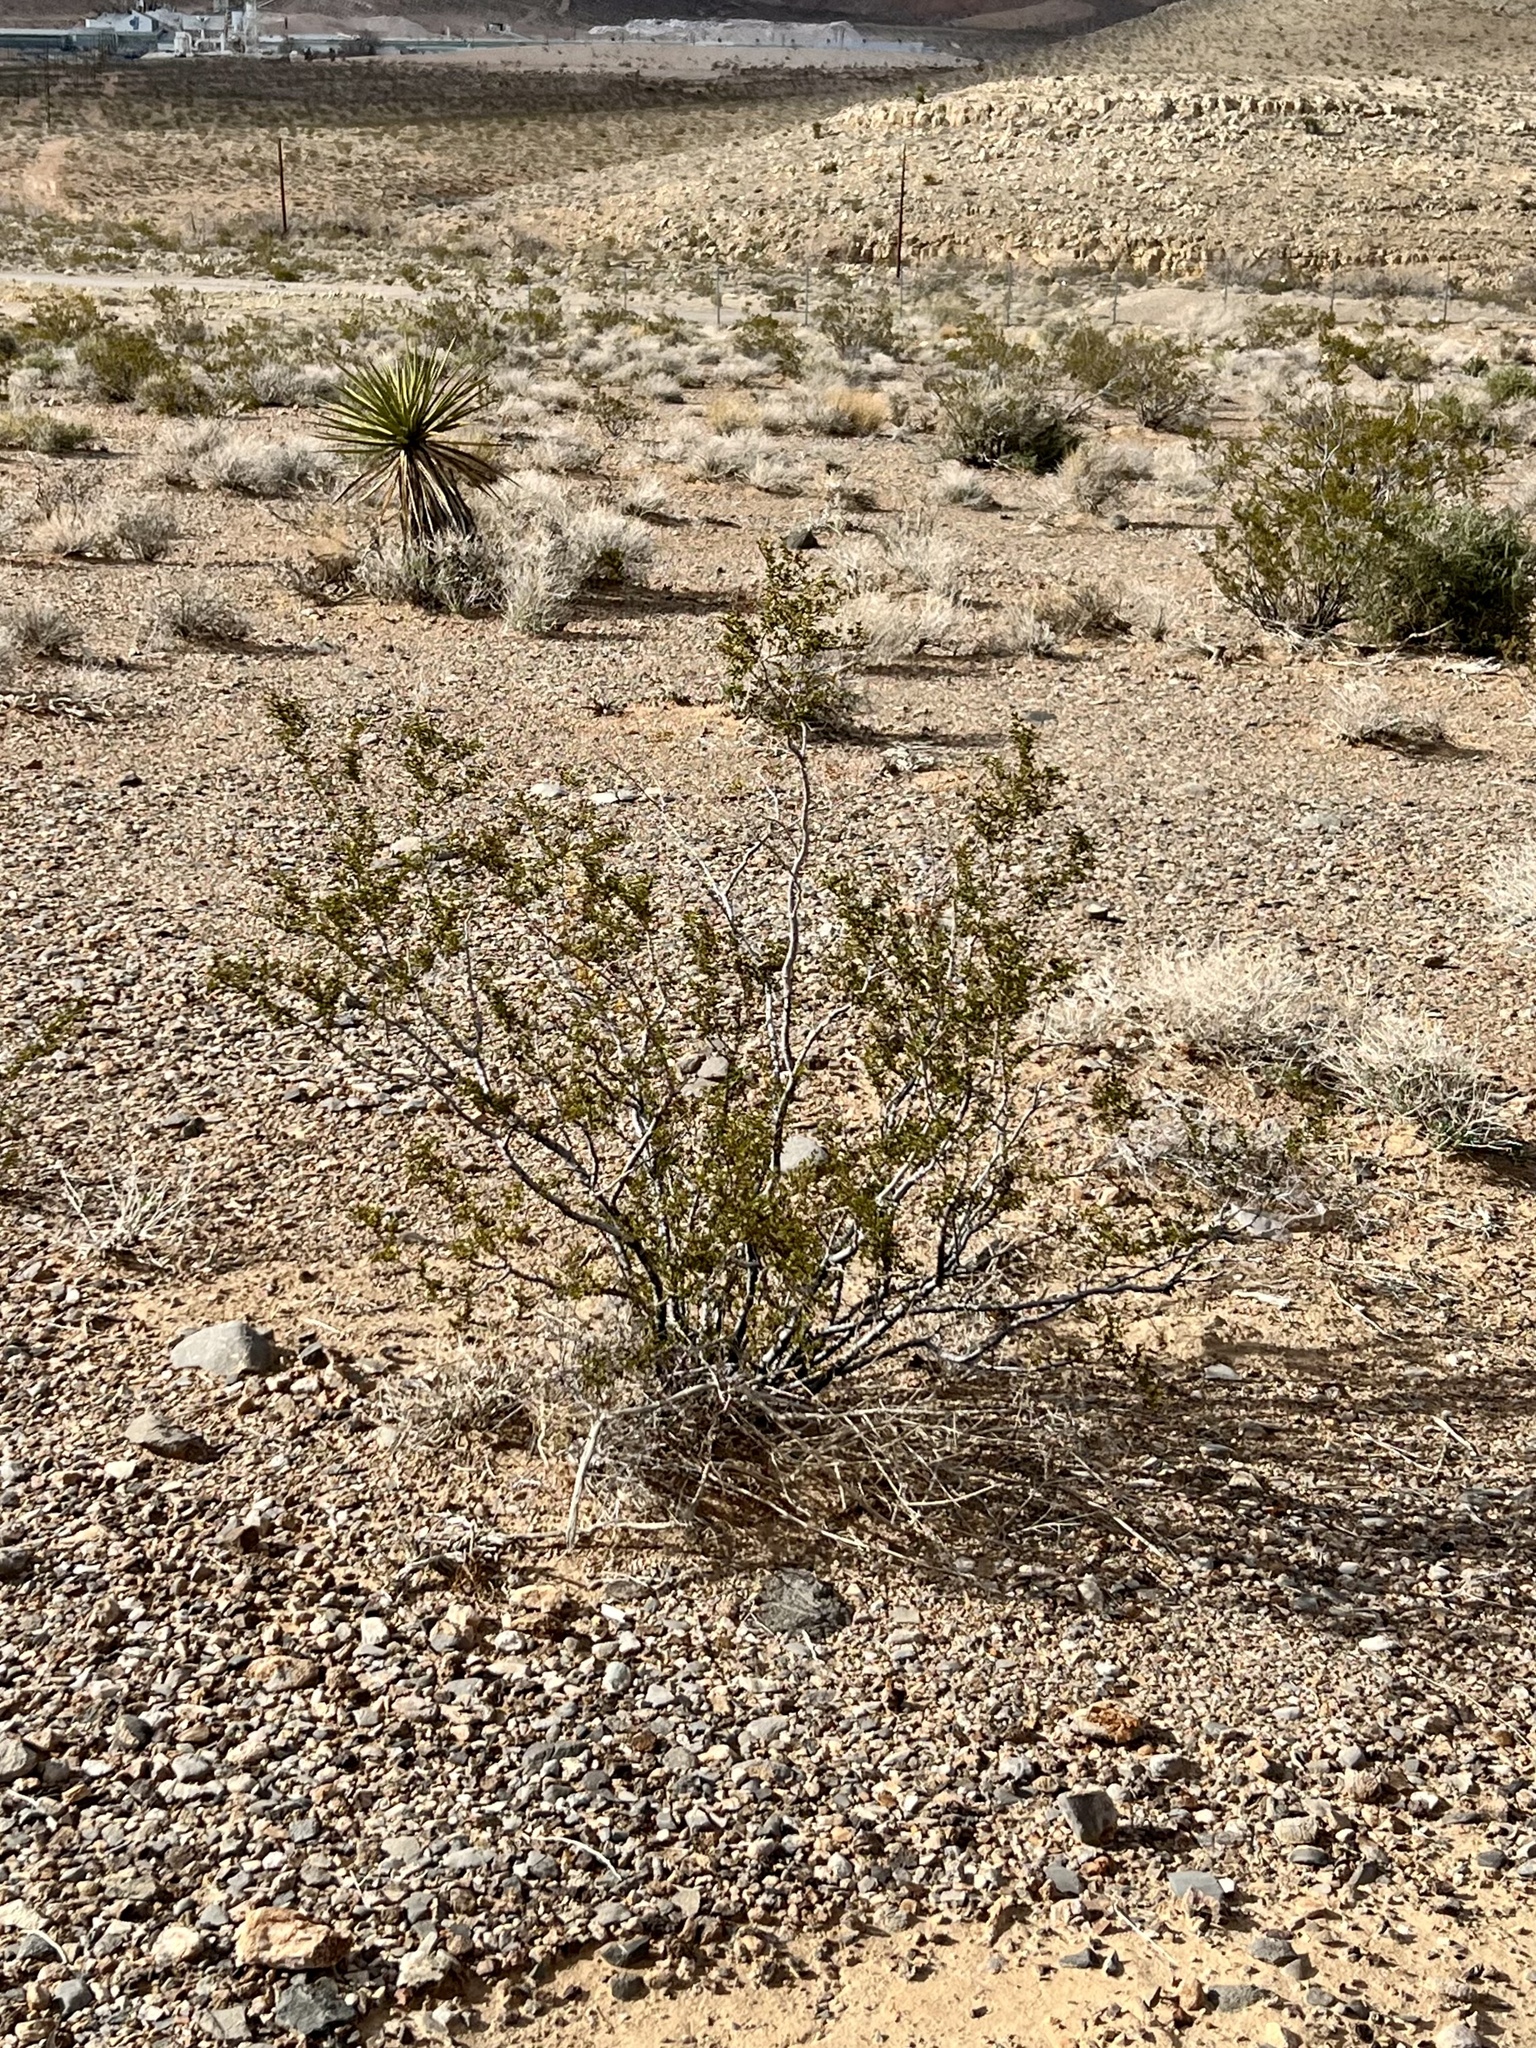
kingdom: Plantae
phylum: Tracheophyta
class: Magnoliopsida
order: Zygophyllales
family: Zygophyllaceae
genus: Larrea
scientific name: Larrea tridentata
